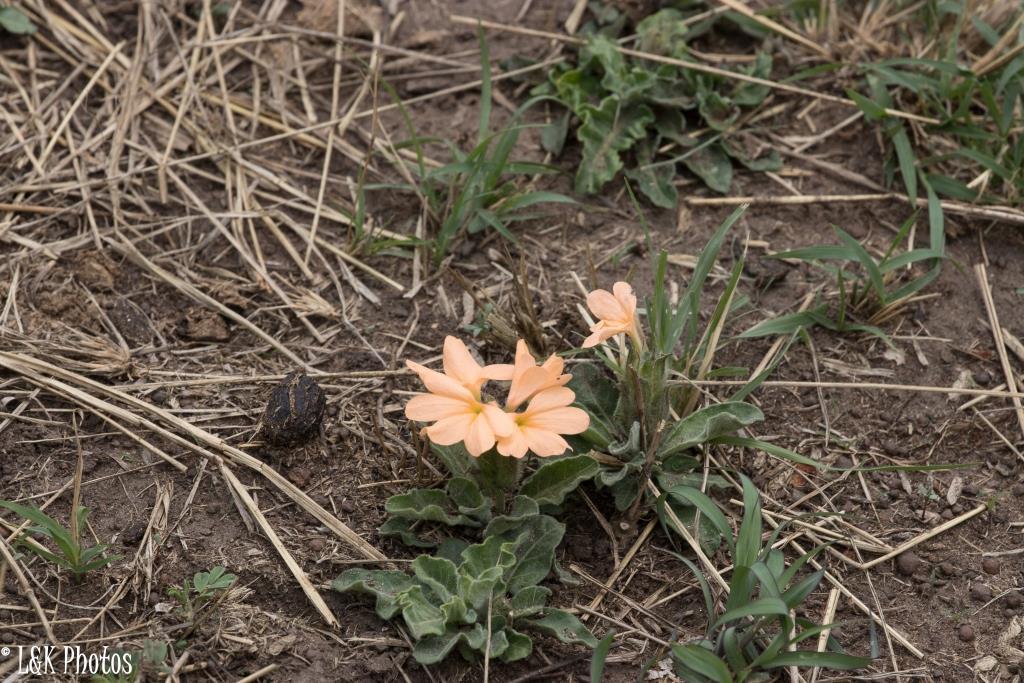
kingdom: Plantae
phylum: Tracheophyta
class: Magnoliopsida
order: Lamiales
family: Acanthaceae
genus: Crossandra
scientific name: Crossandra subacaulis
